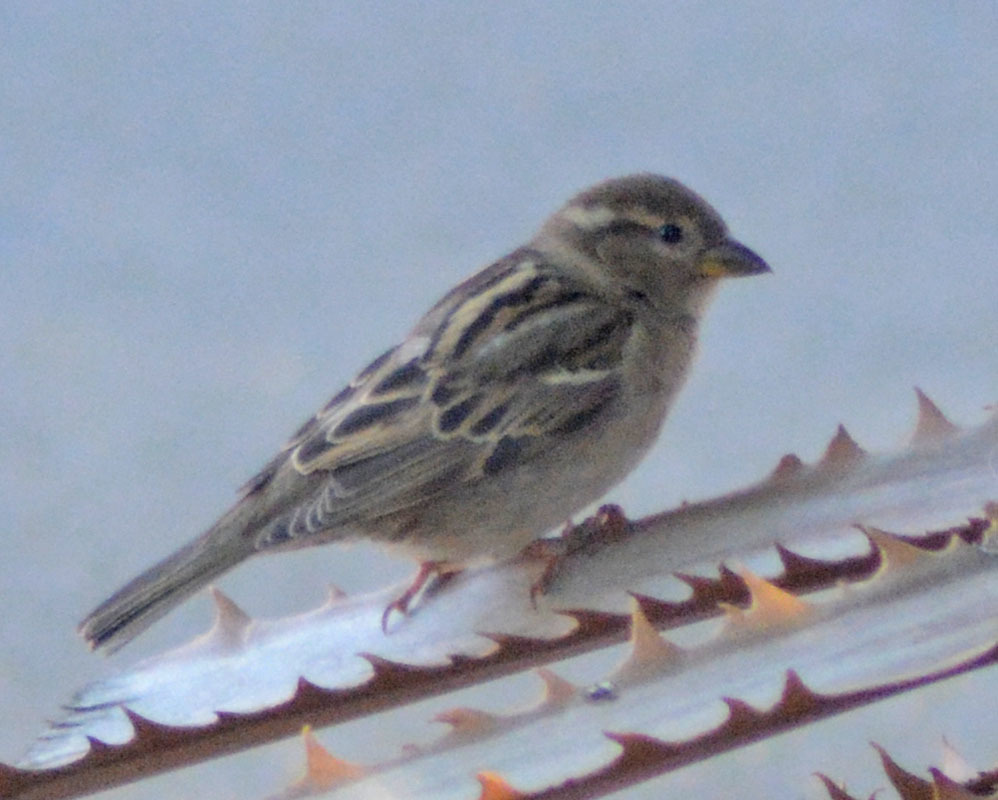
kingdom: Animalia
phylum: Chordata
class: Aves
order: Passeriformes
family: Passeridae
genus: Passer
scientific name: Passer domesticus
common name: House sparrow
